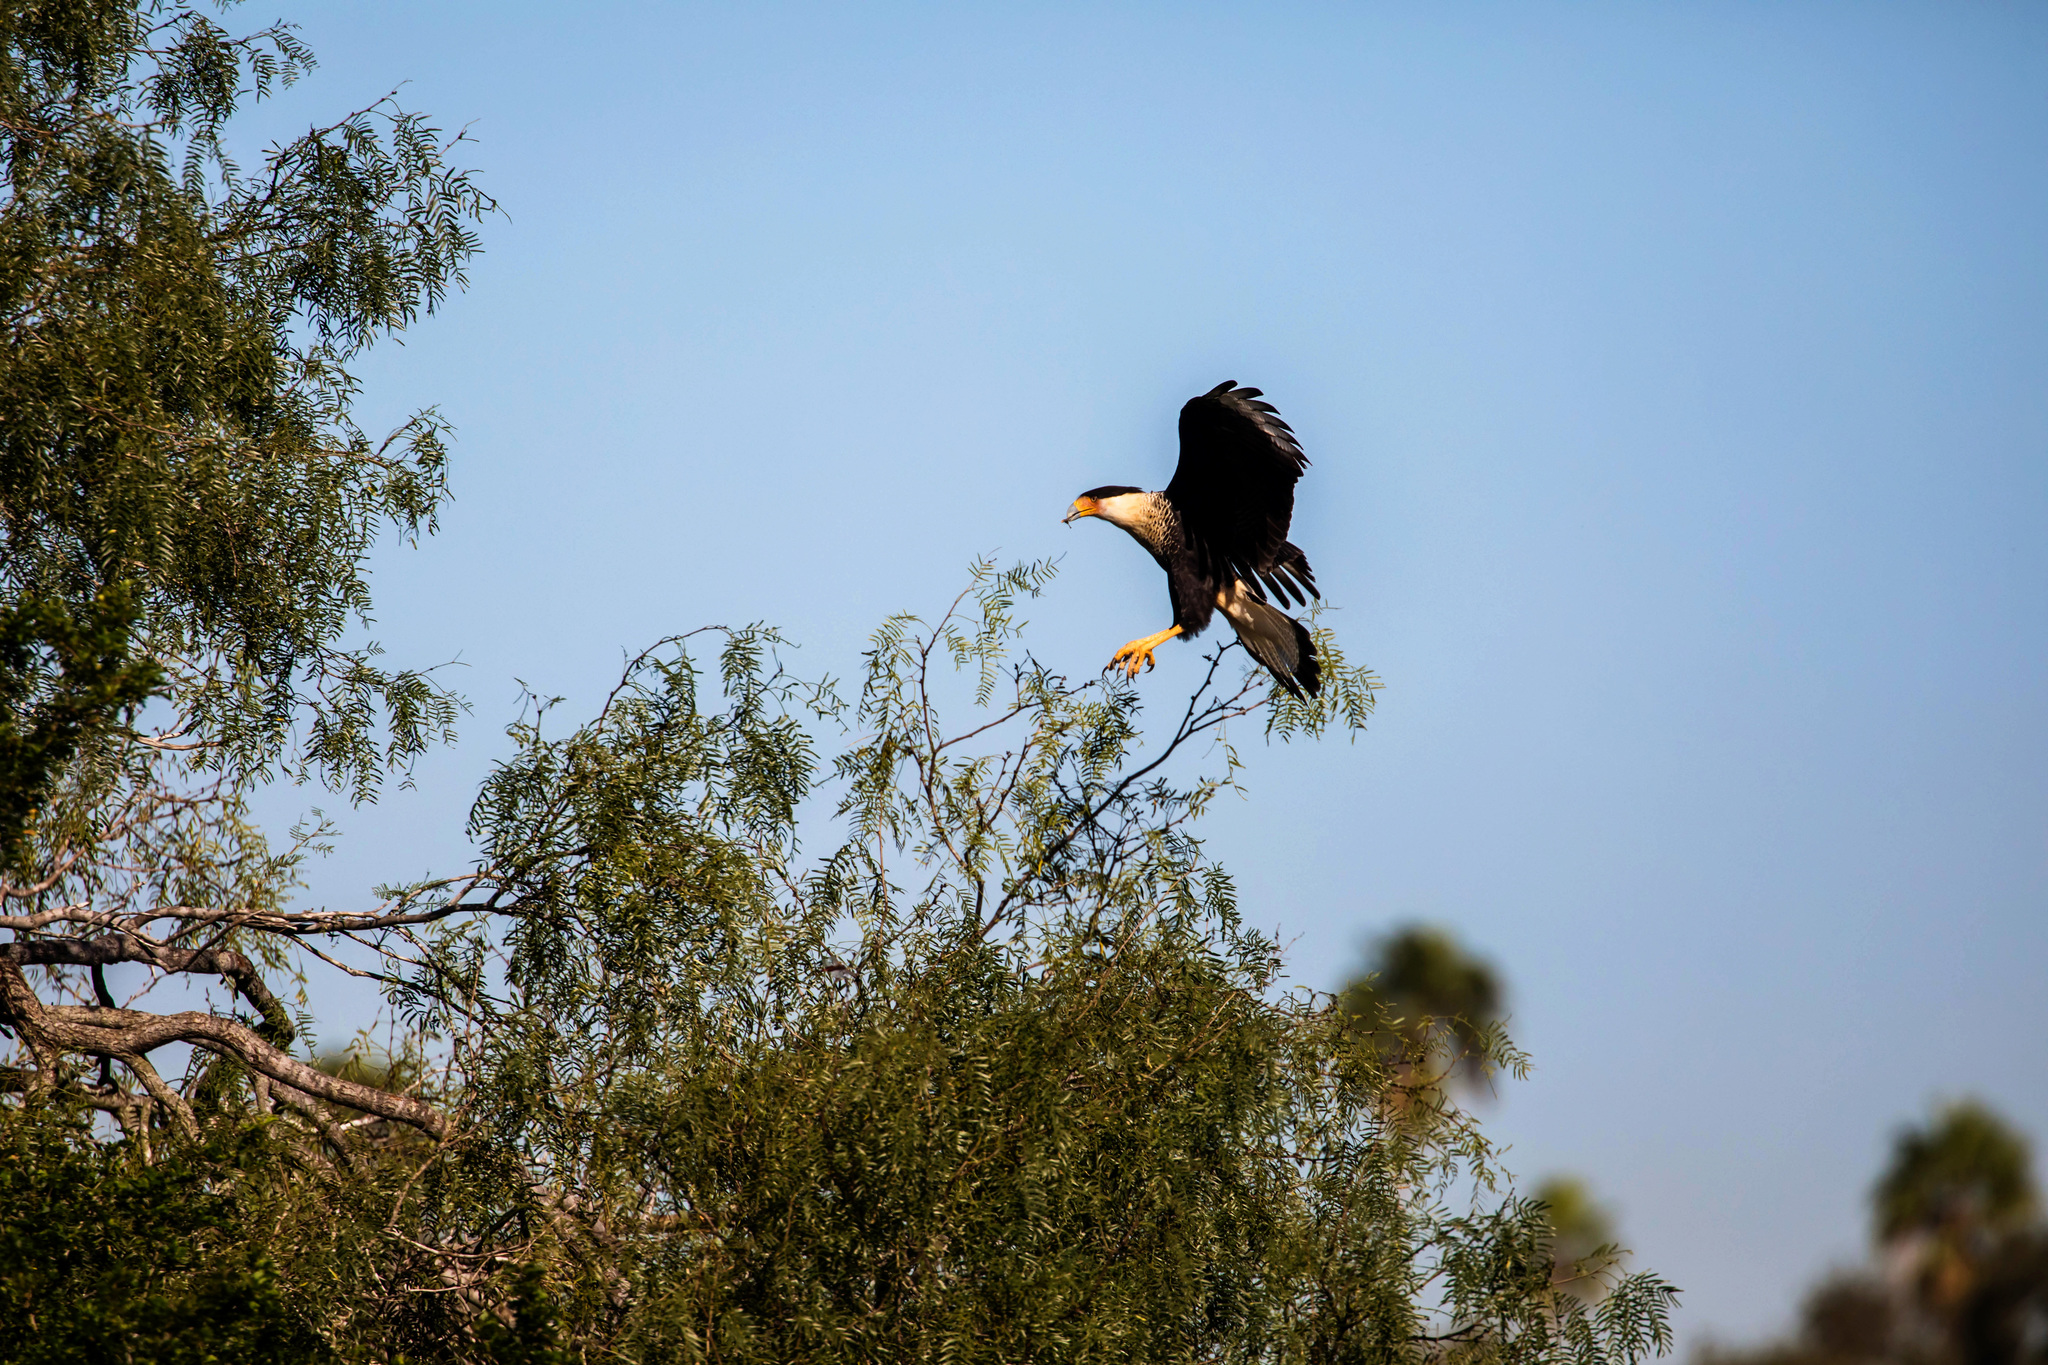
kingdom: Animalia
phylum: Chordata
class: Aves
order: Falconiformes
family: Falconidae
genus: Caracara
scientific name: Caracara plancus
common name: Southern caracara
